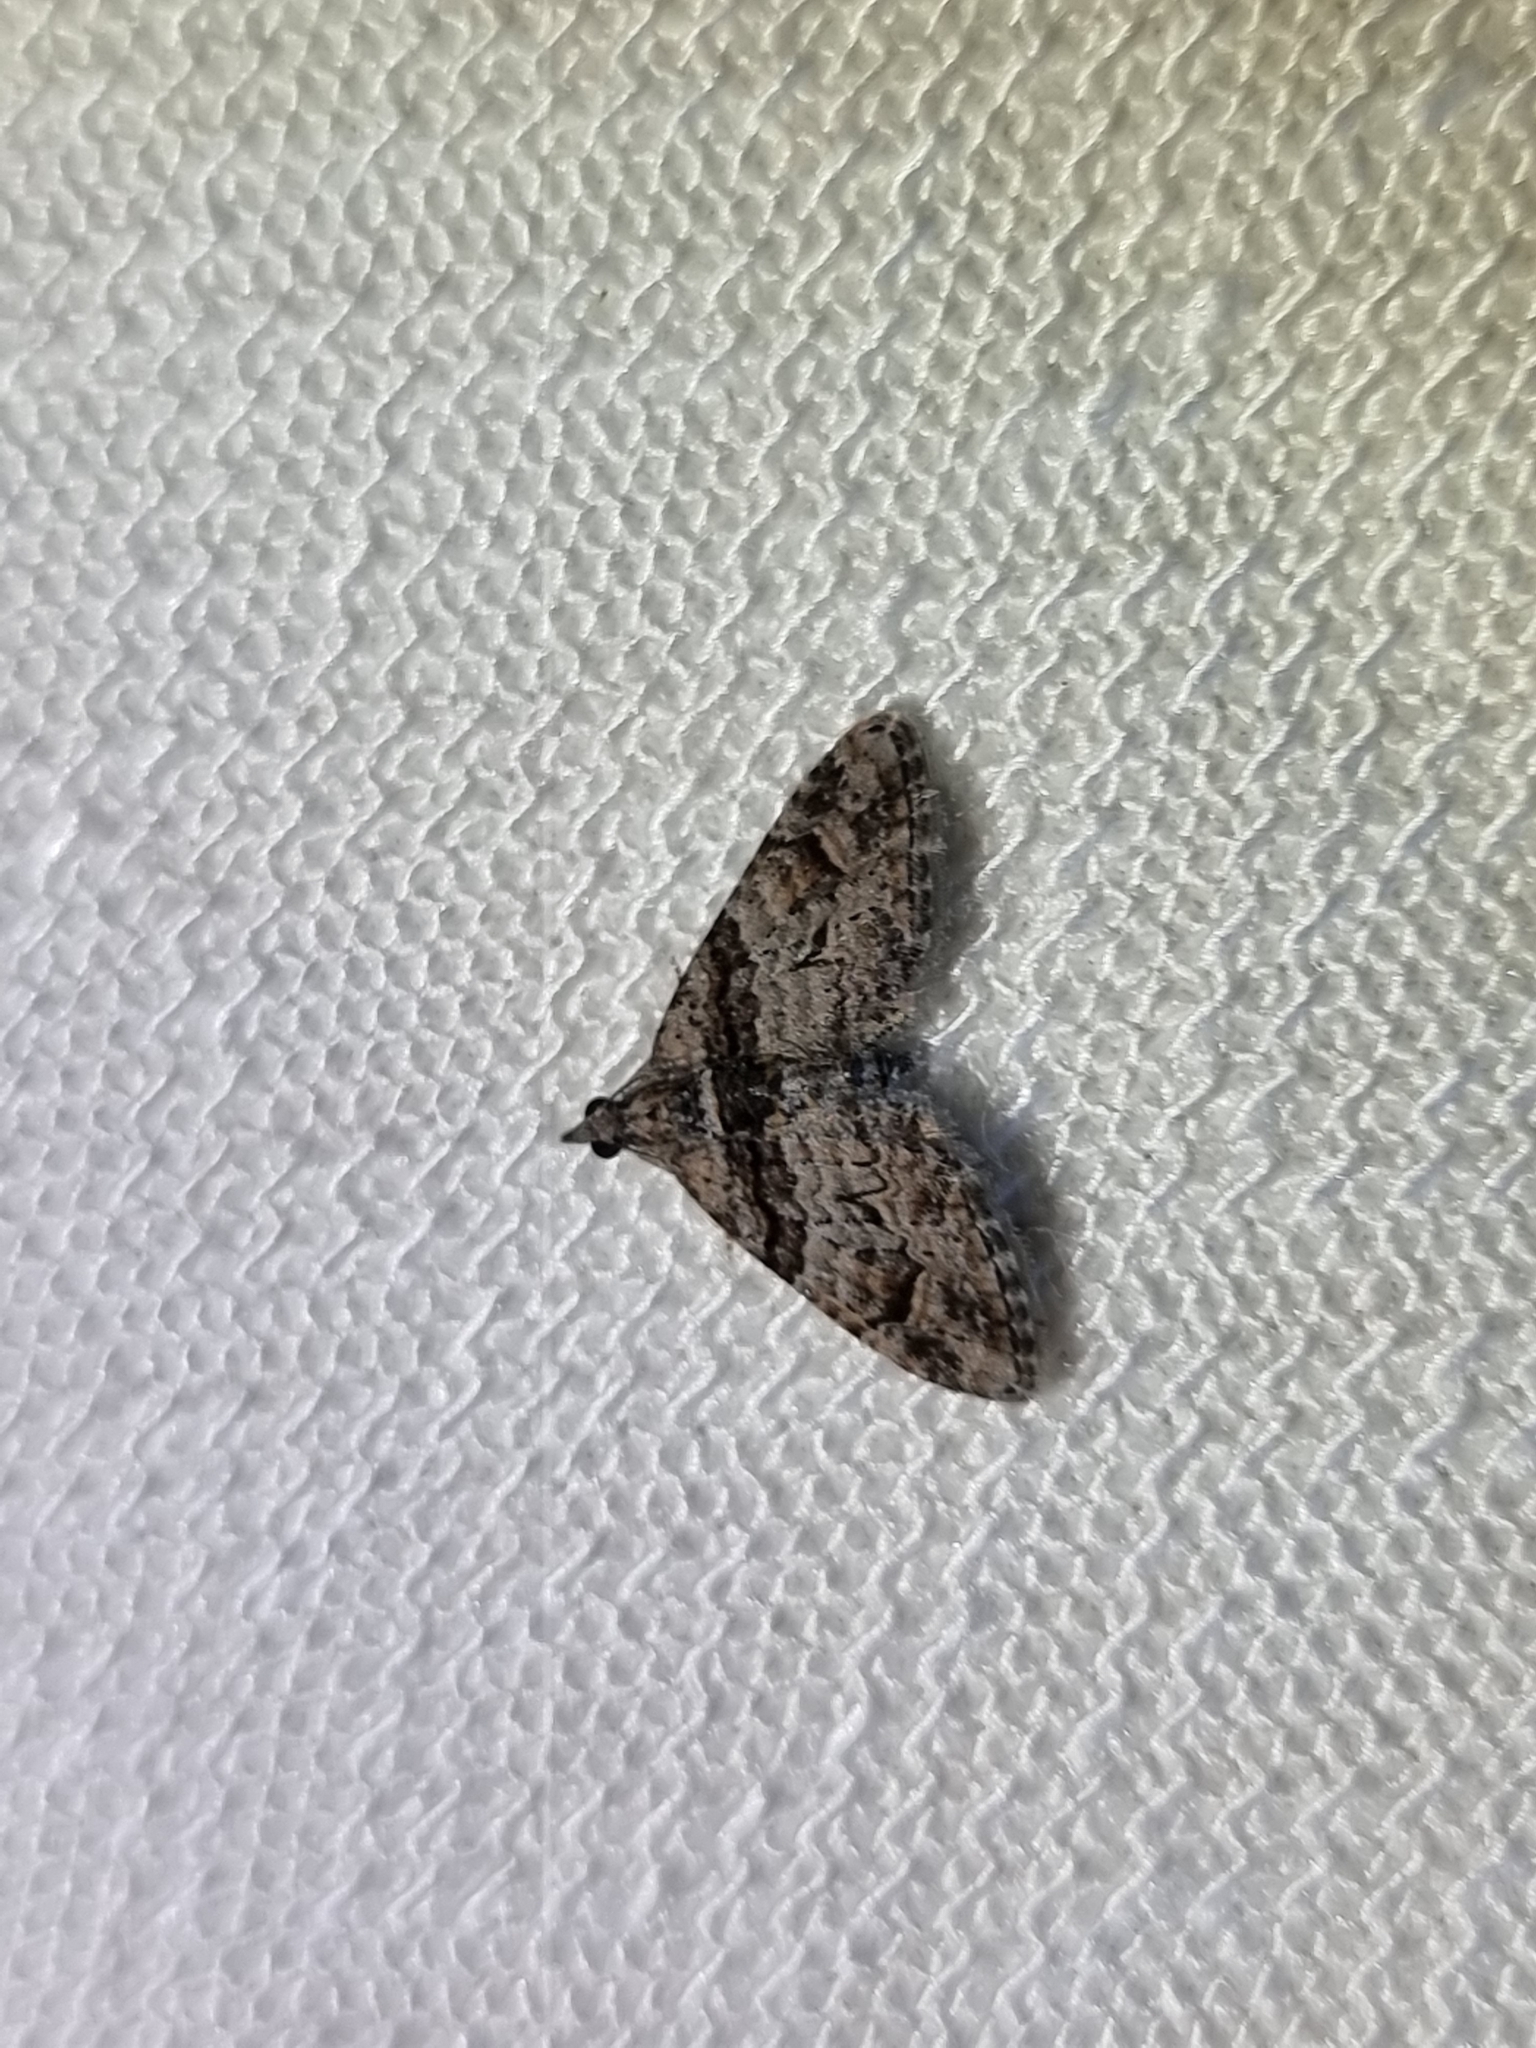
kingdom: Animalia
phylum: Arthropoda
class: Insecta
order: Lepidoptera
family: Geometridae
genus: Phrissogonus
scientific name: Phrissogonus laticostata
